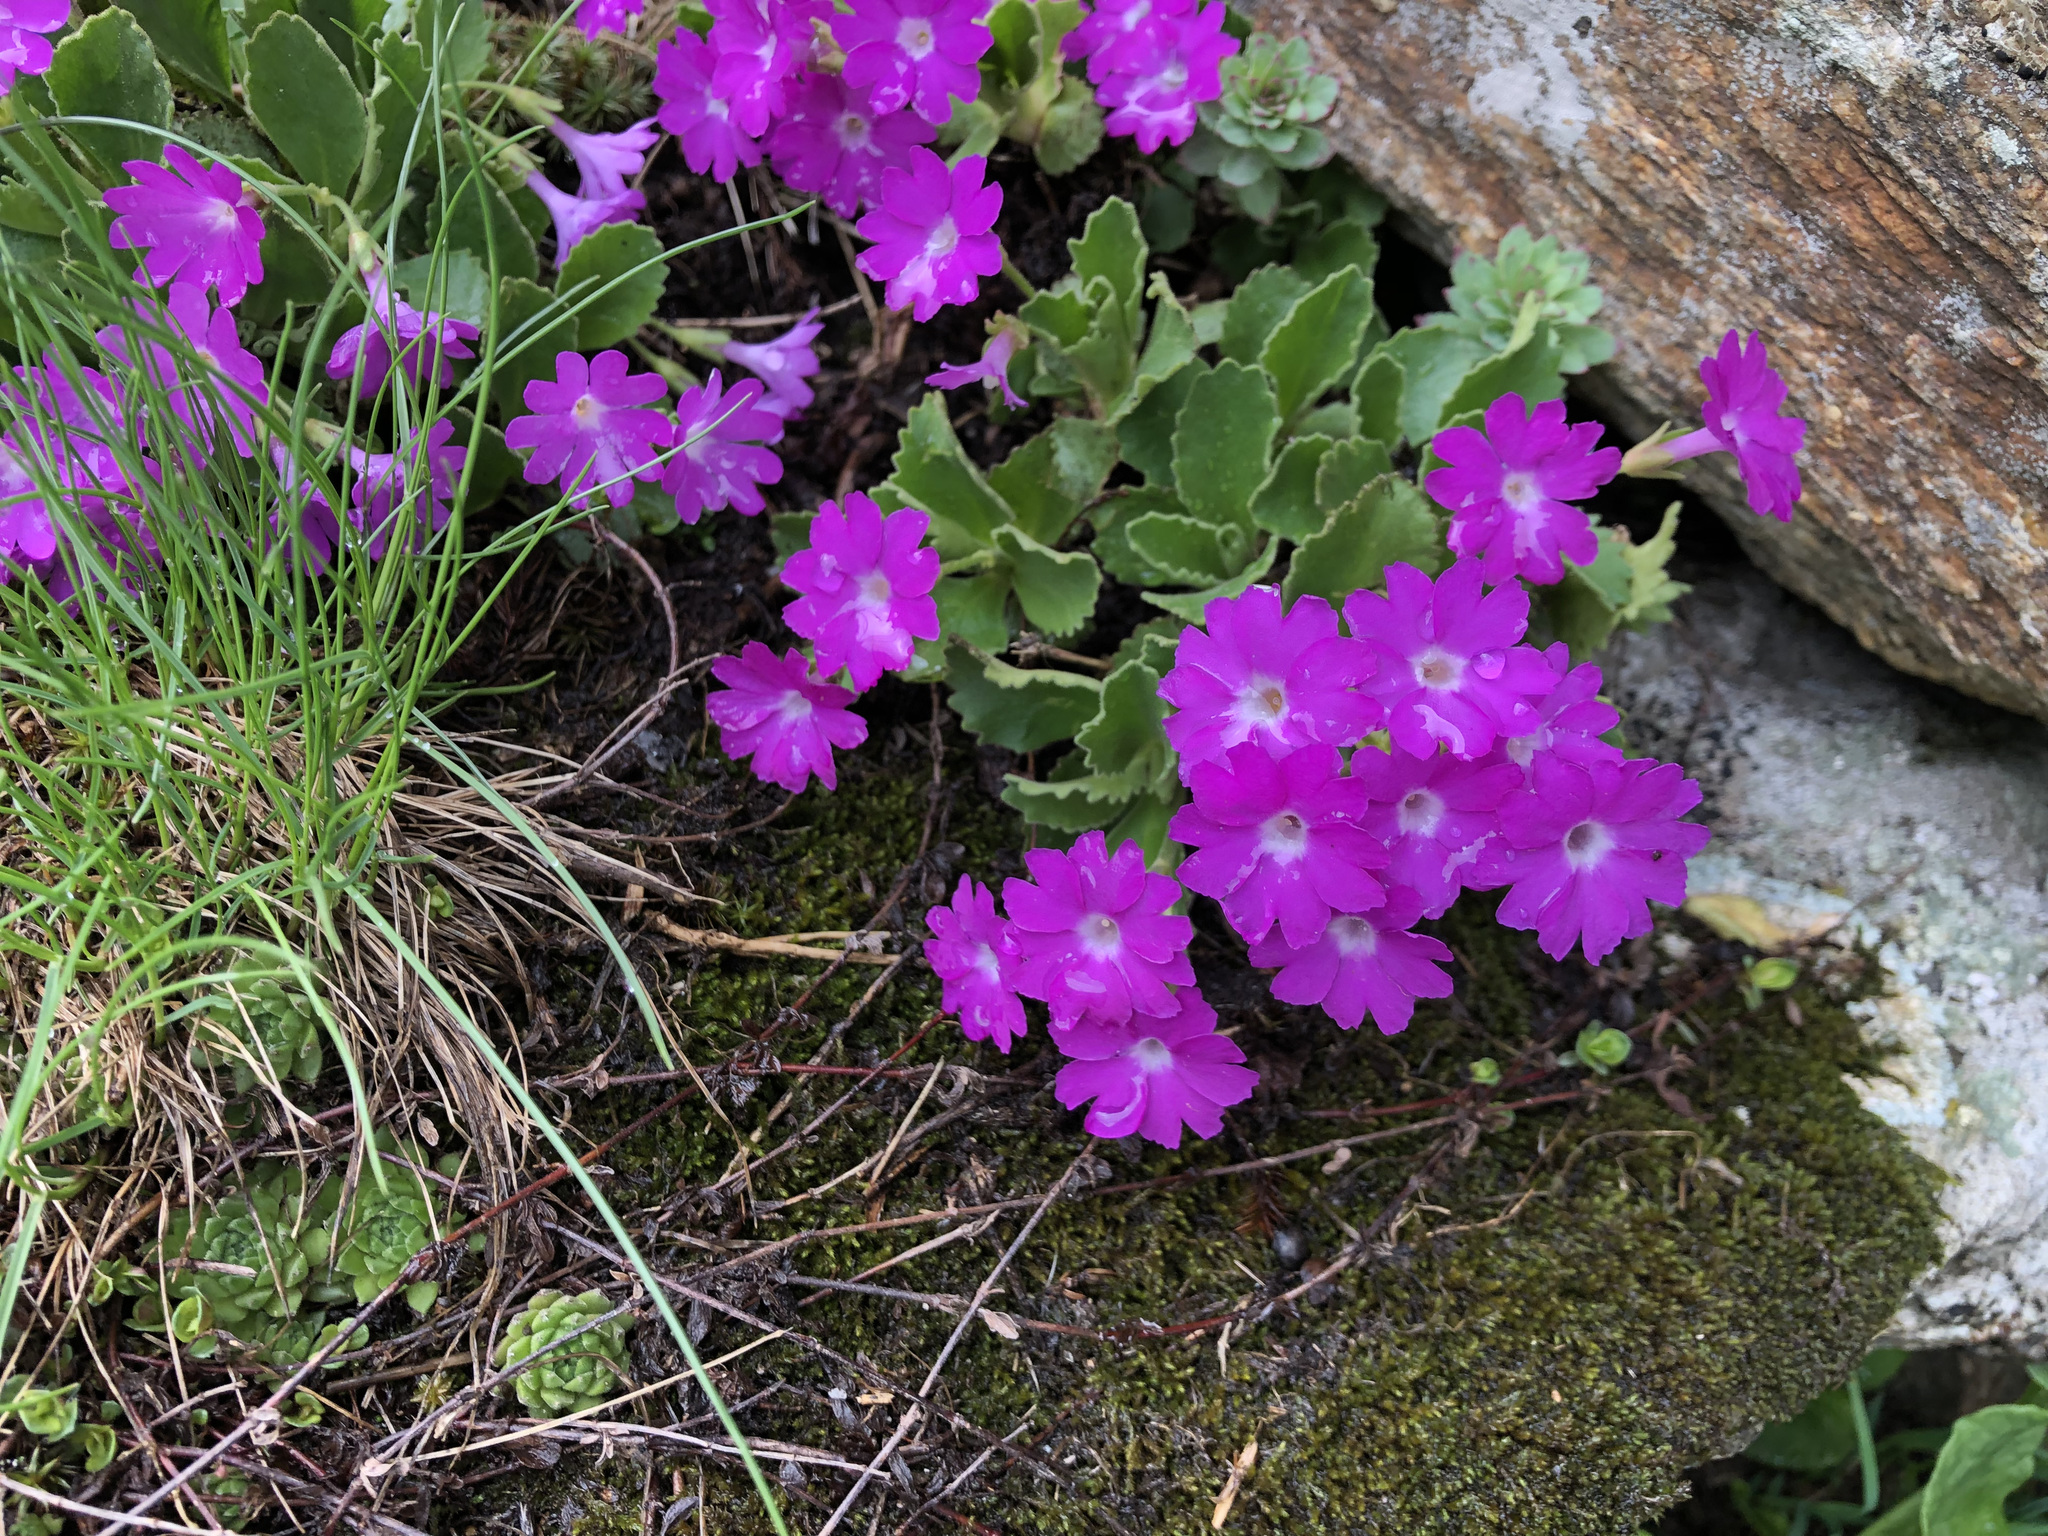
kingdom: Plantae
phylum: Tracheophyta
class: Magnoliopsida
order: Ericales
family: Primulaceae
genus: Primula
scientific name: Primula hirsuta
